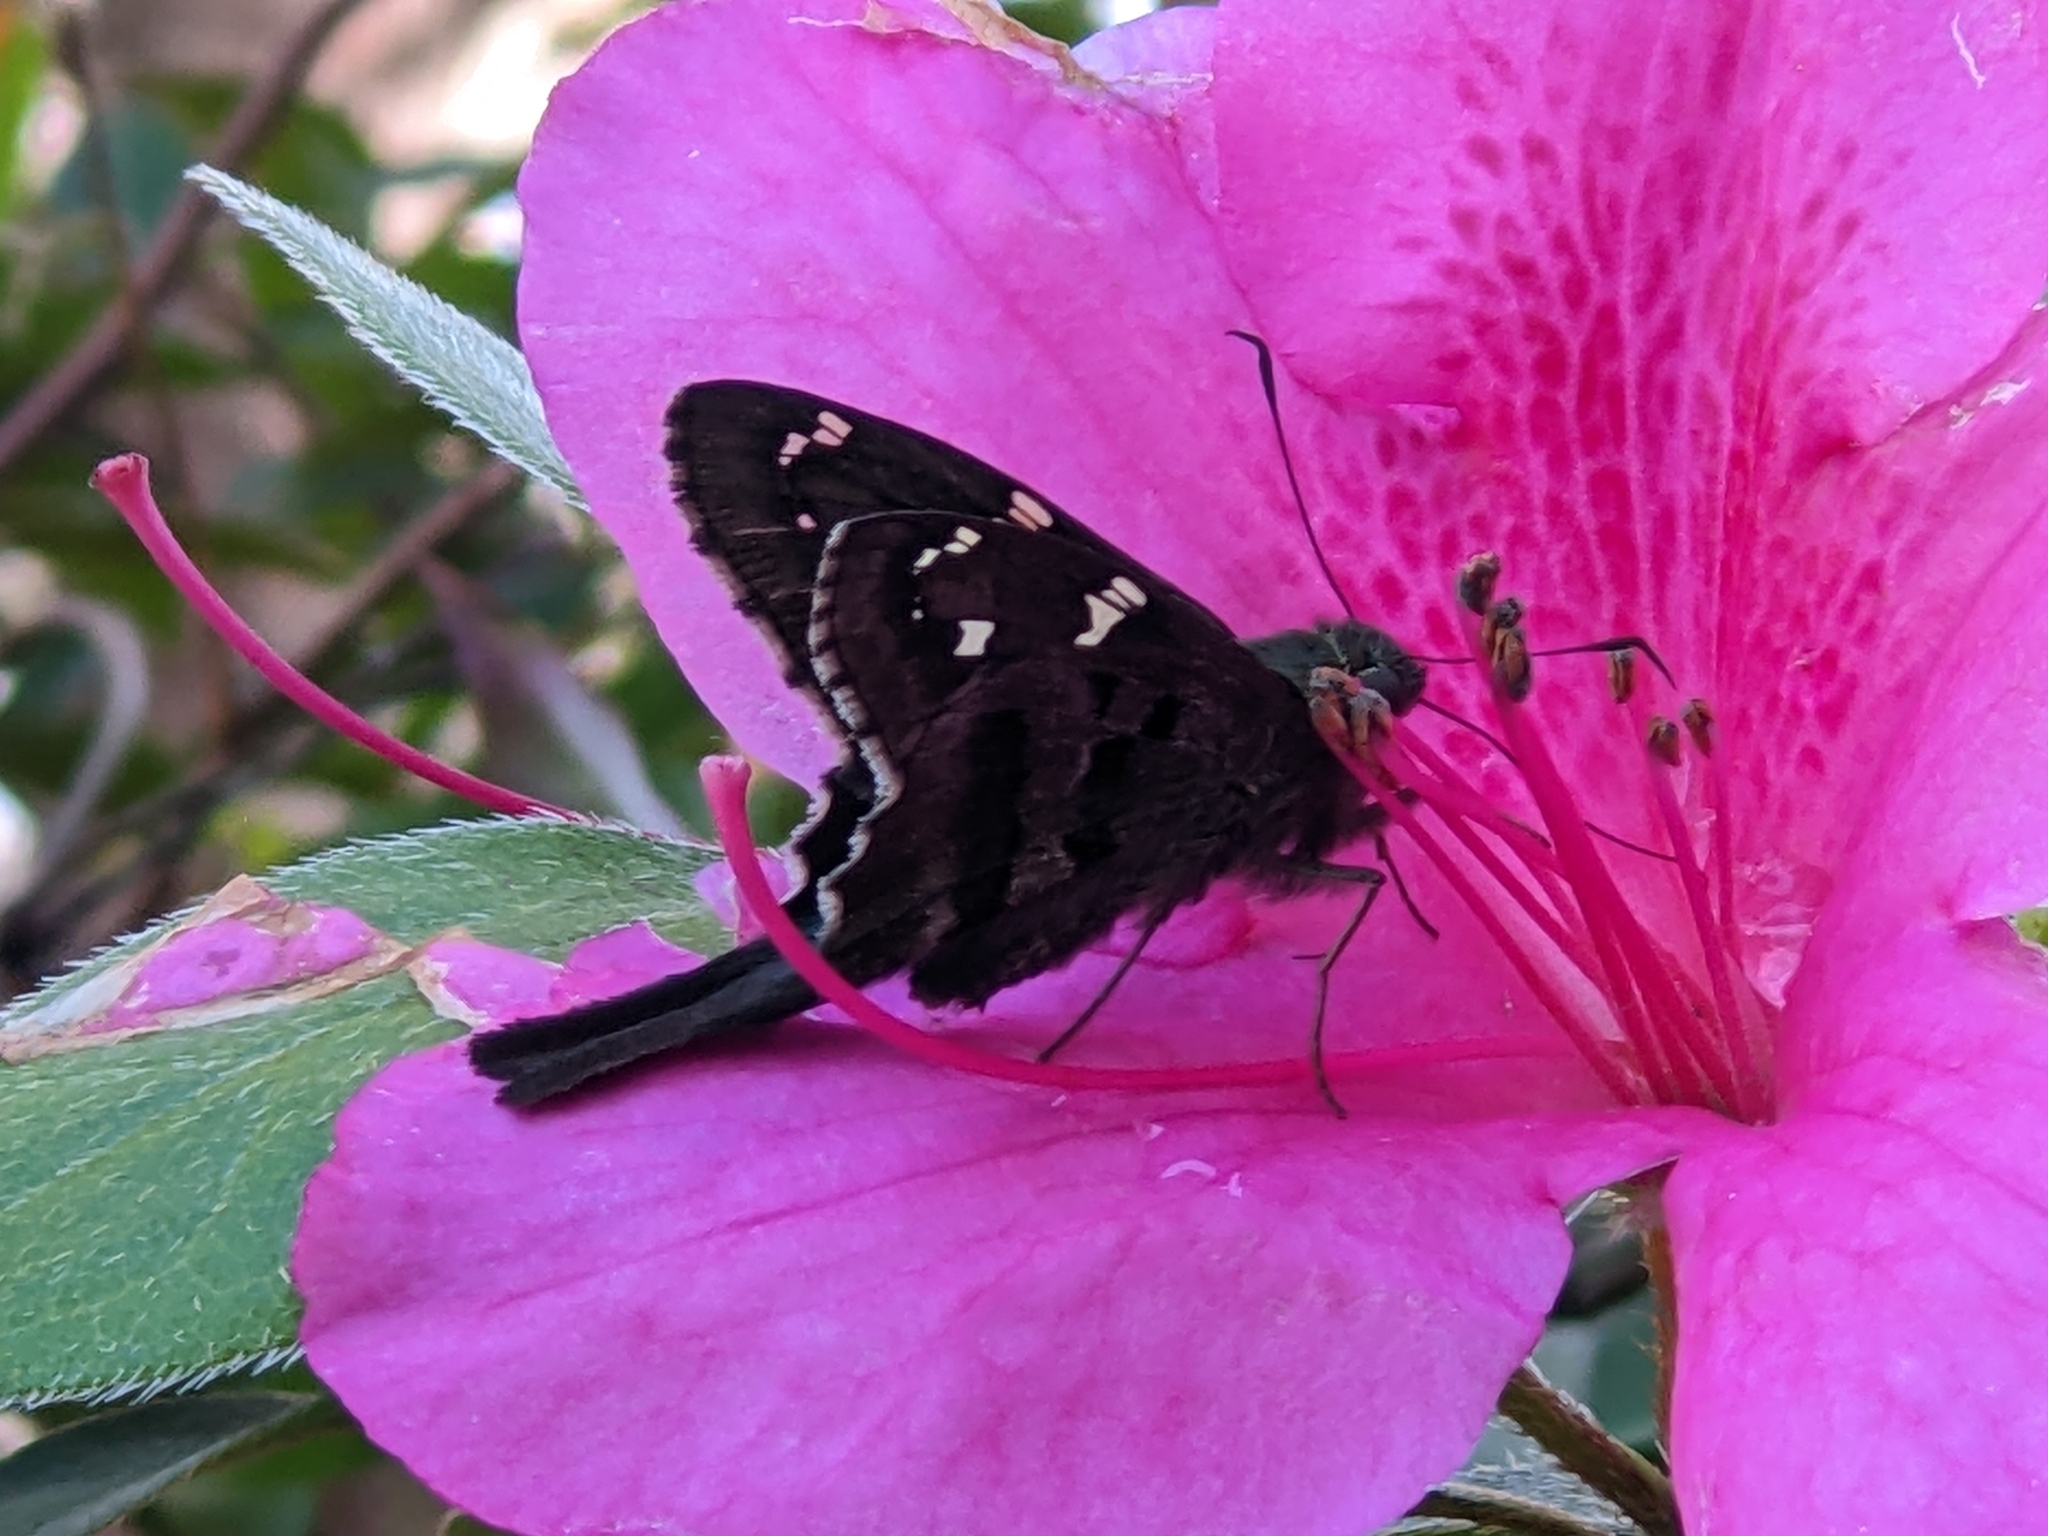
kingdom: Animalia
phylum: Arthropoda
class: Insecta
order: Lepidoptera
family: Hesperiidae
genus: Urbanus
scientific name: Urbanus proteus
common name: Long-tailed skipper
